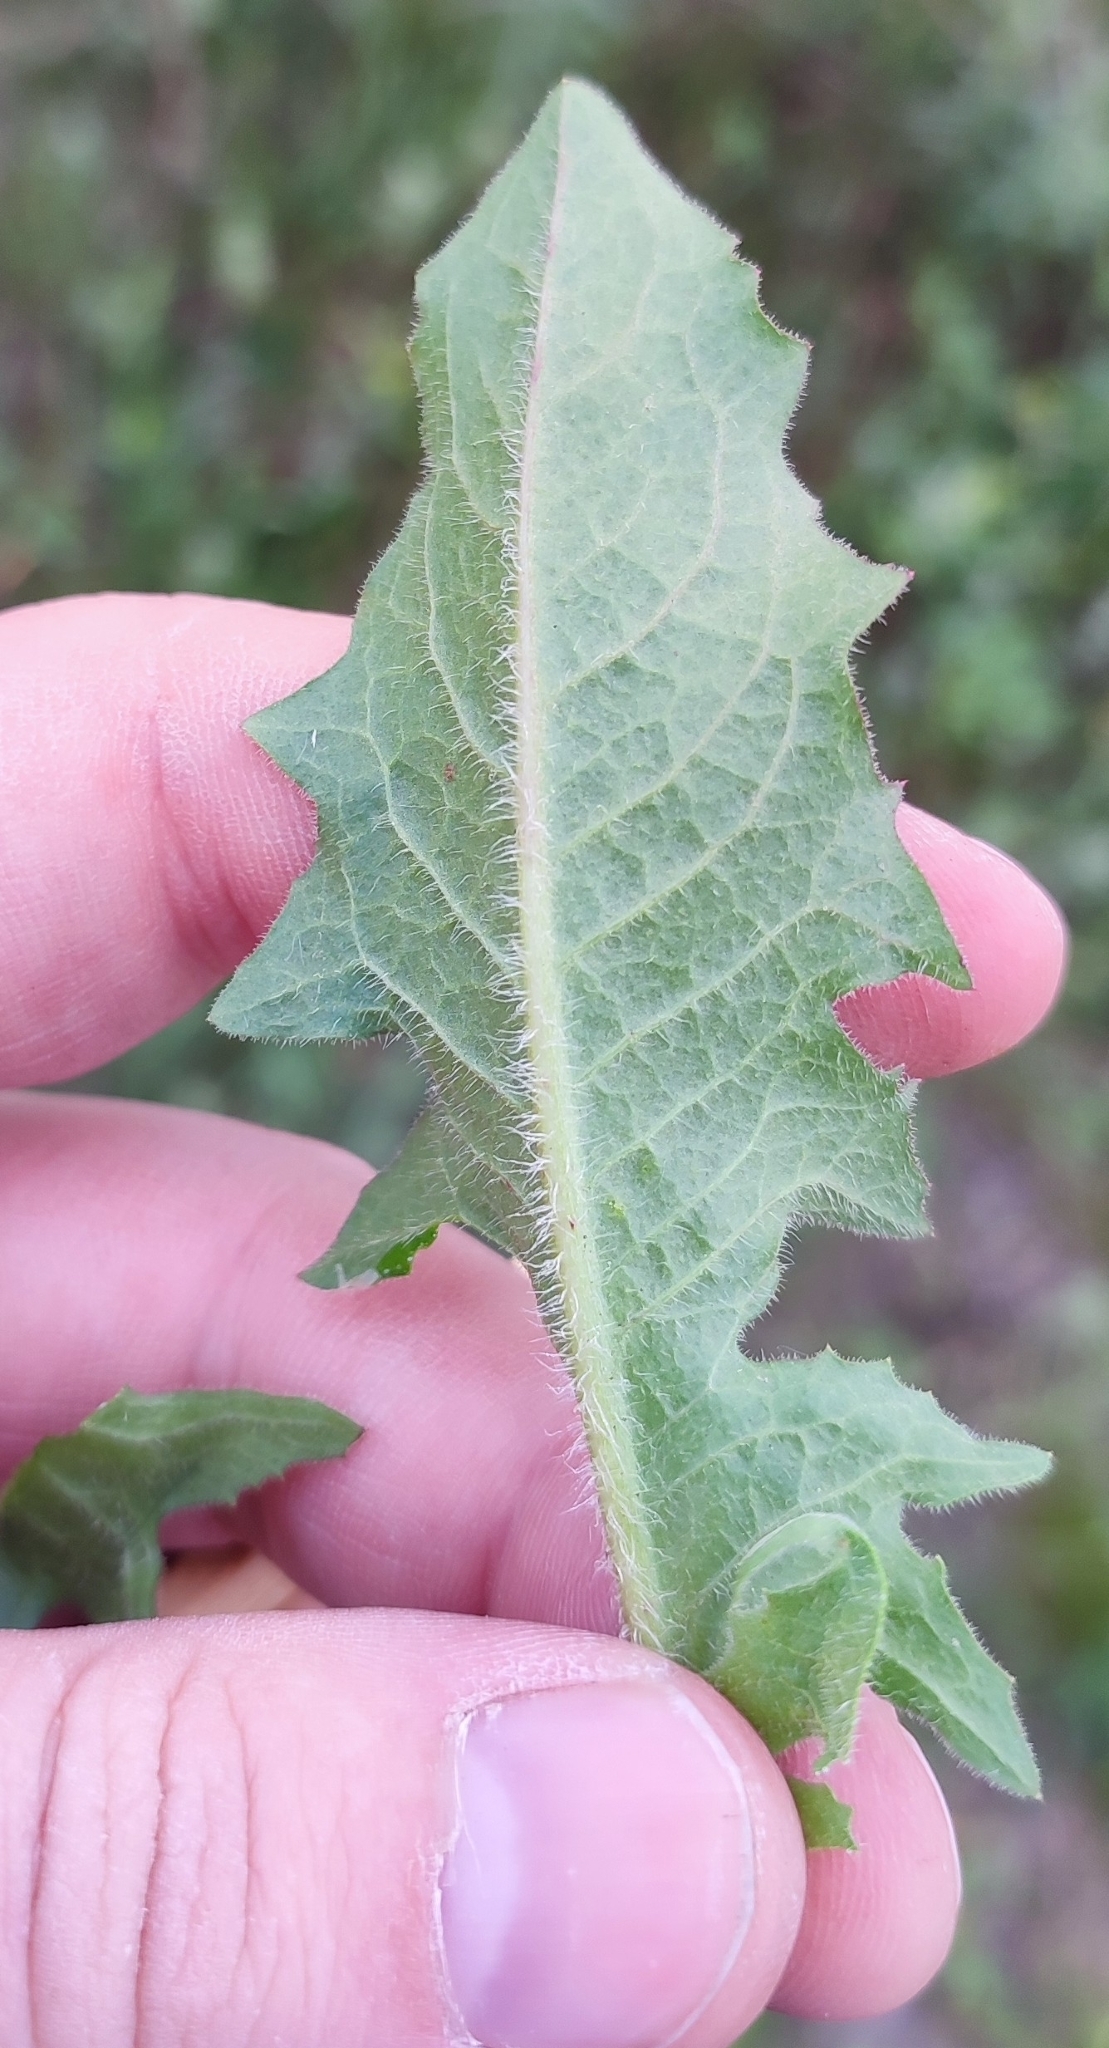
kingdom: Plantae
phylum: Tracheophyta
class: Magnoliopsida
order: Asterales
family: Asteraceae
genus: Cichorium
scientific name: Cichorium intybus
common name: Chicory
